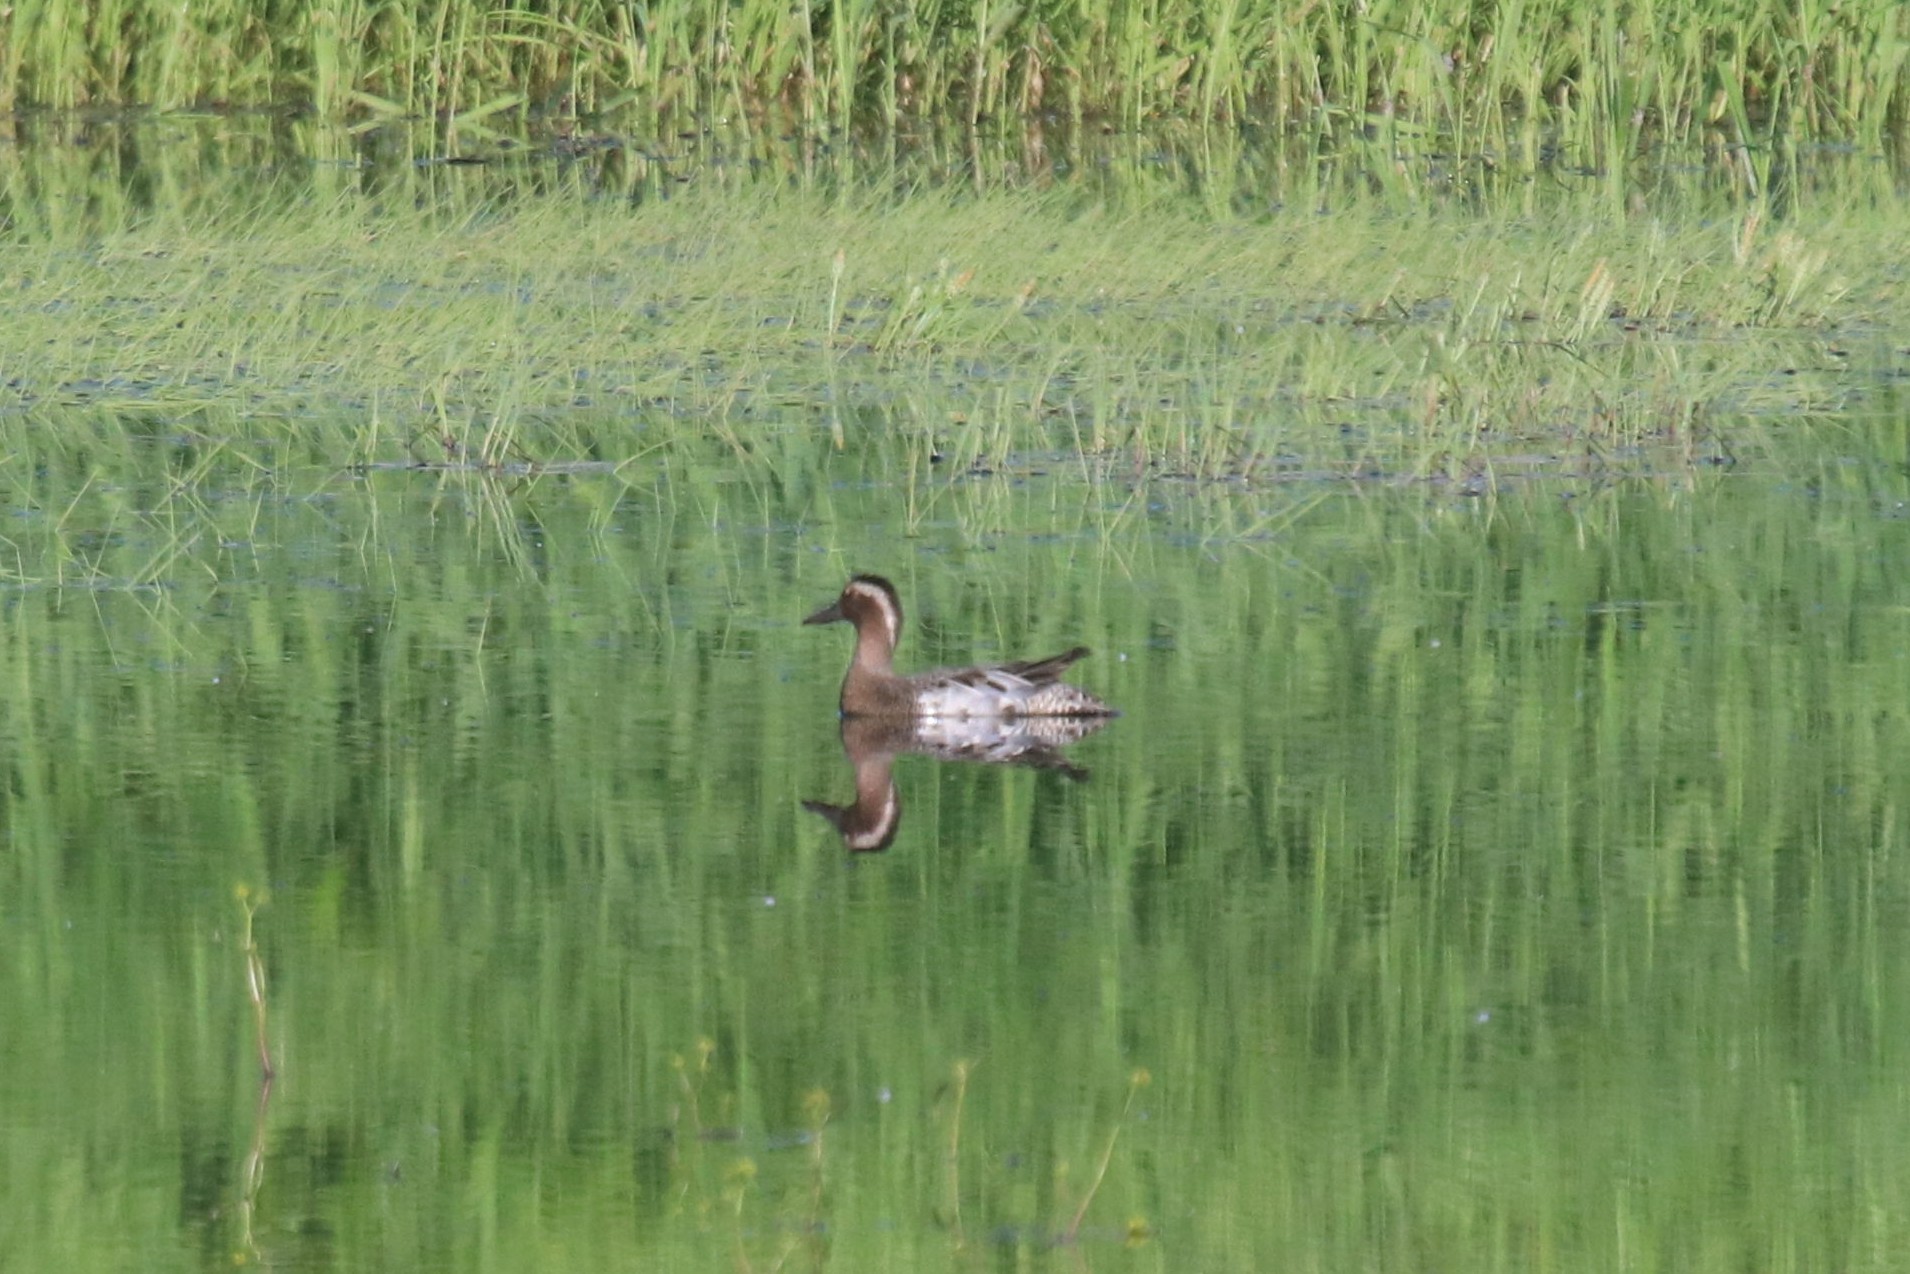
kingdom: Animalia
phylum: Chordata
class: Aves
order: Anseriformes
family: Anatidae
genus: Spatula
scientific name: Spatula querquedula
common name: Garganey
